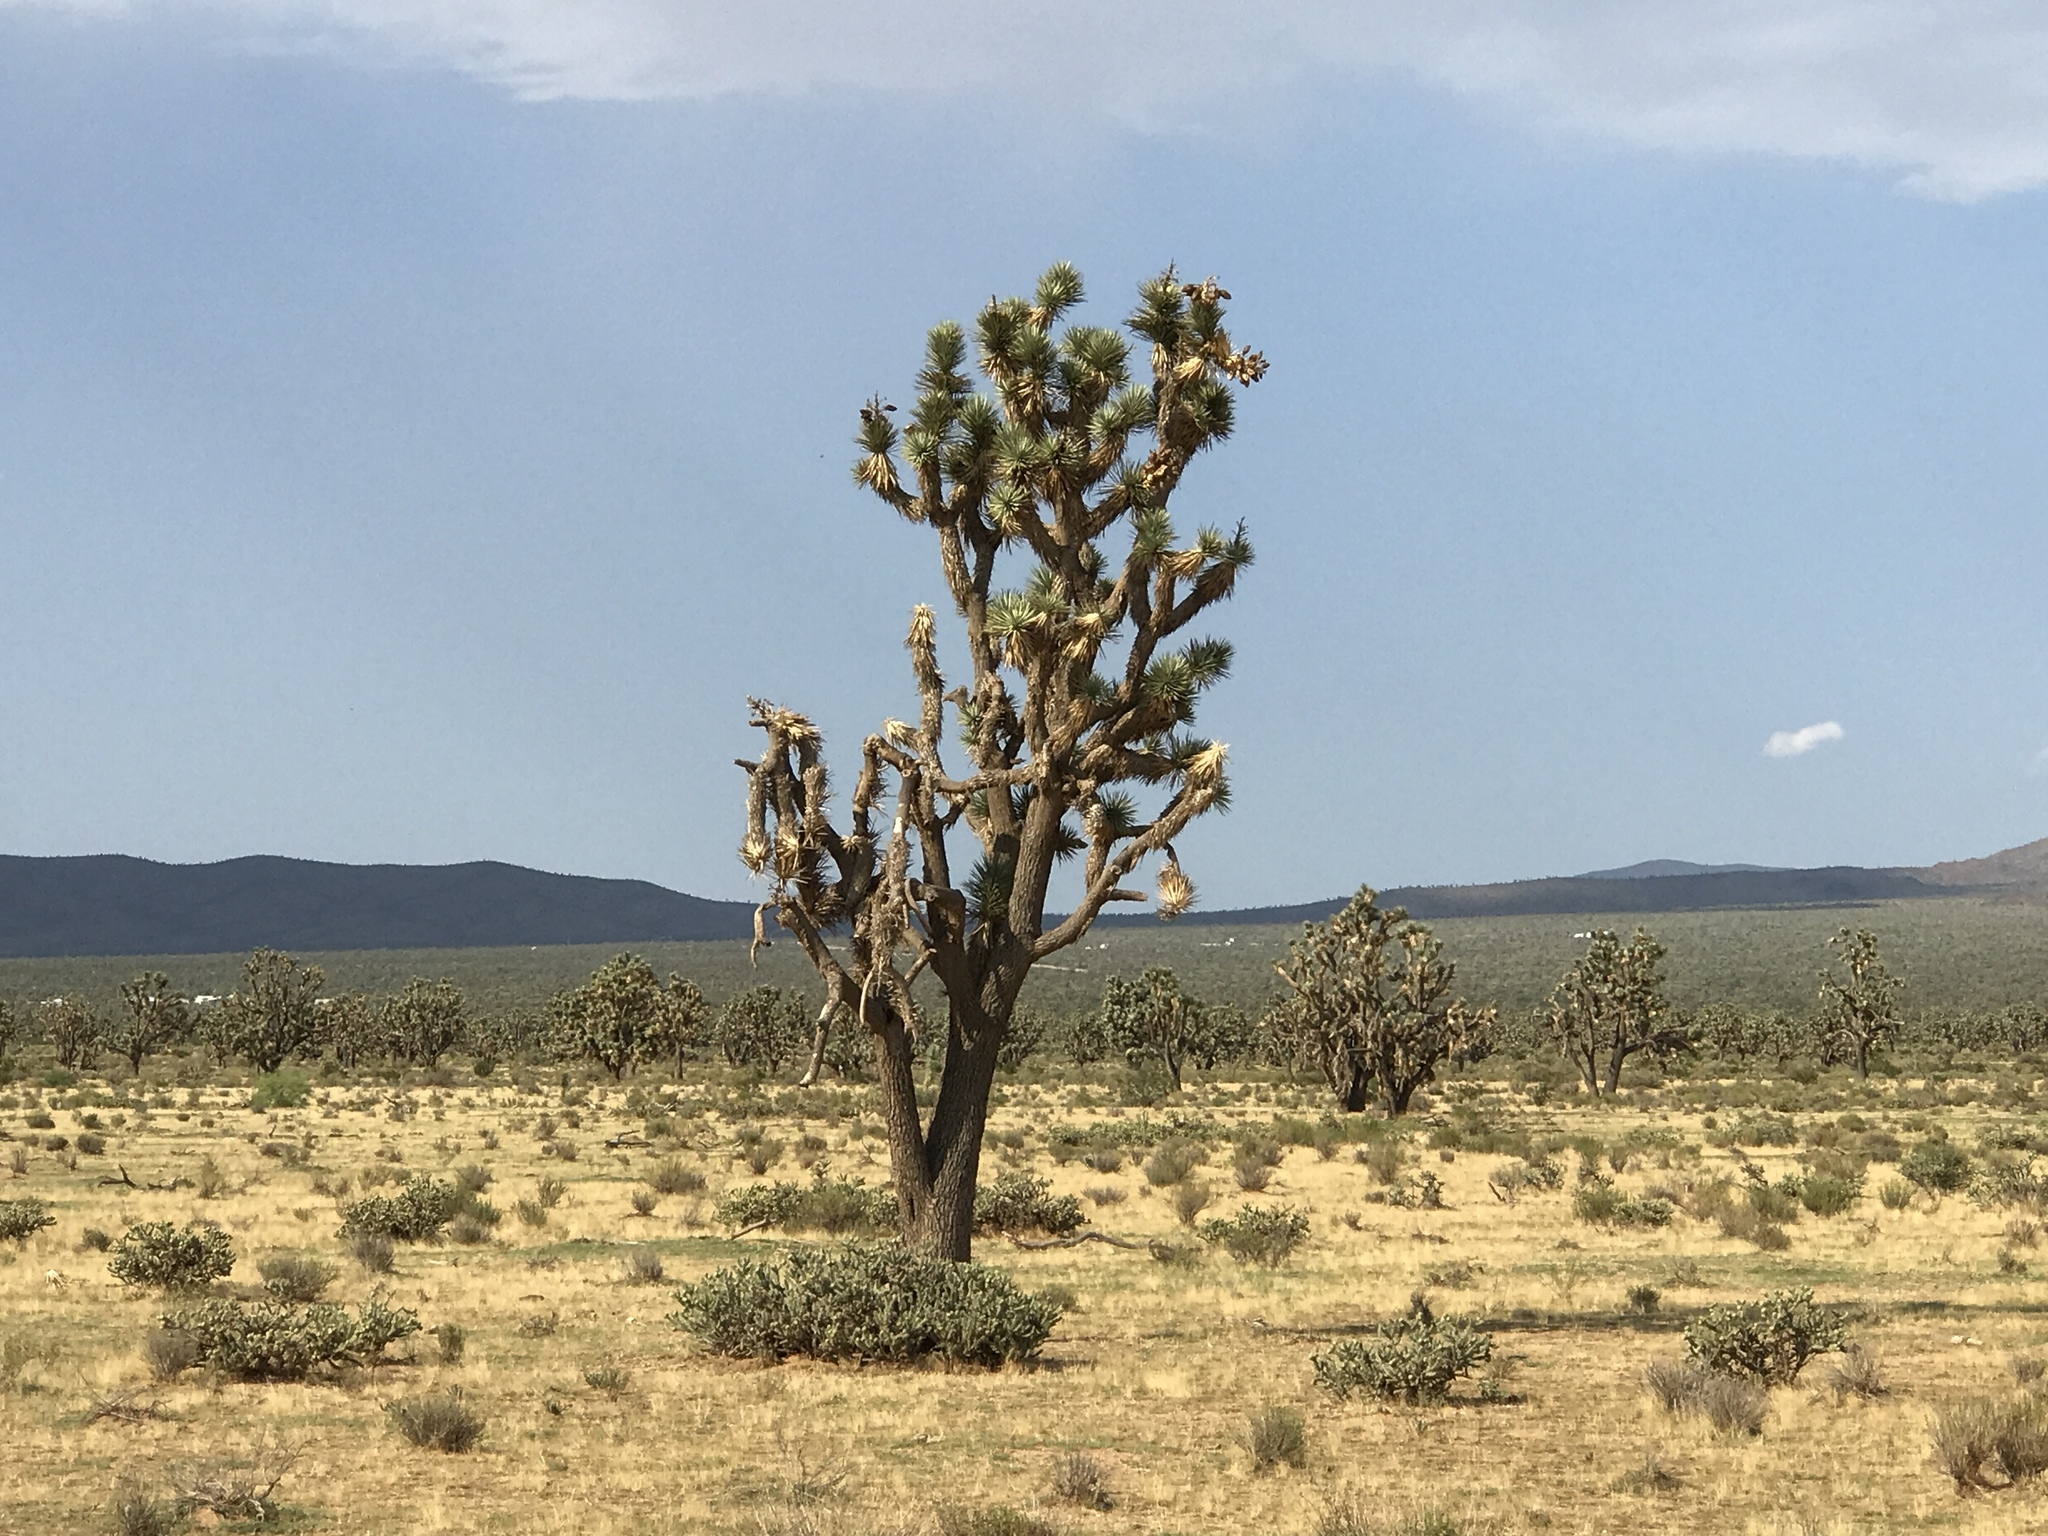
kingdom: Plantae
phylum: Tracheophyta
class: Liliopsida
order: Asparagales
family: Asparagaceae
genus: Yucca
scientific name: Yucca brevifolia
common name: Joshua tree
